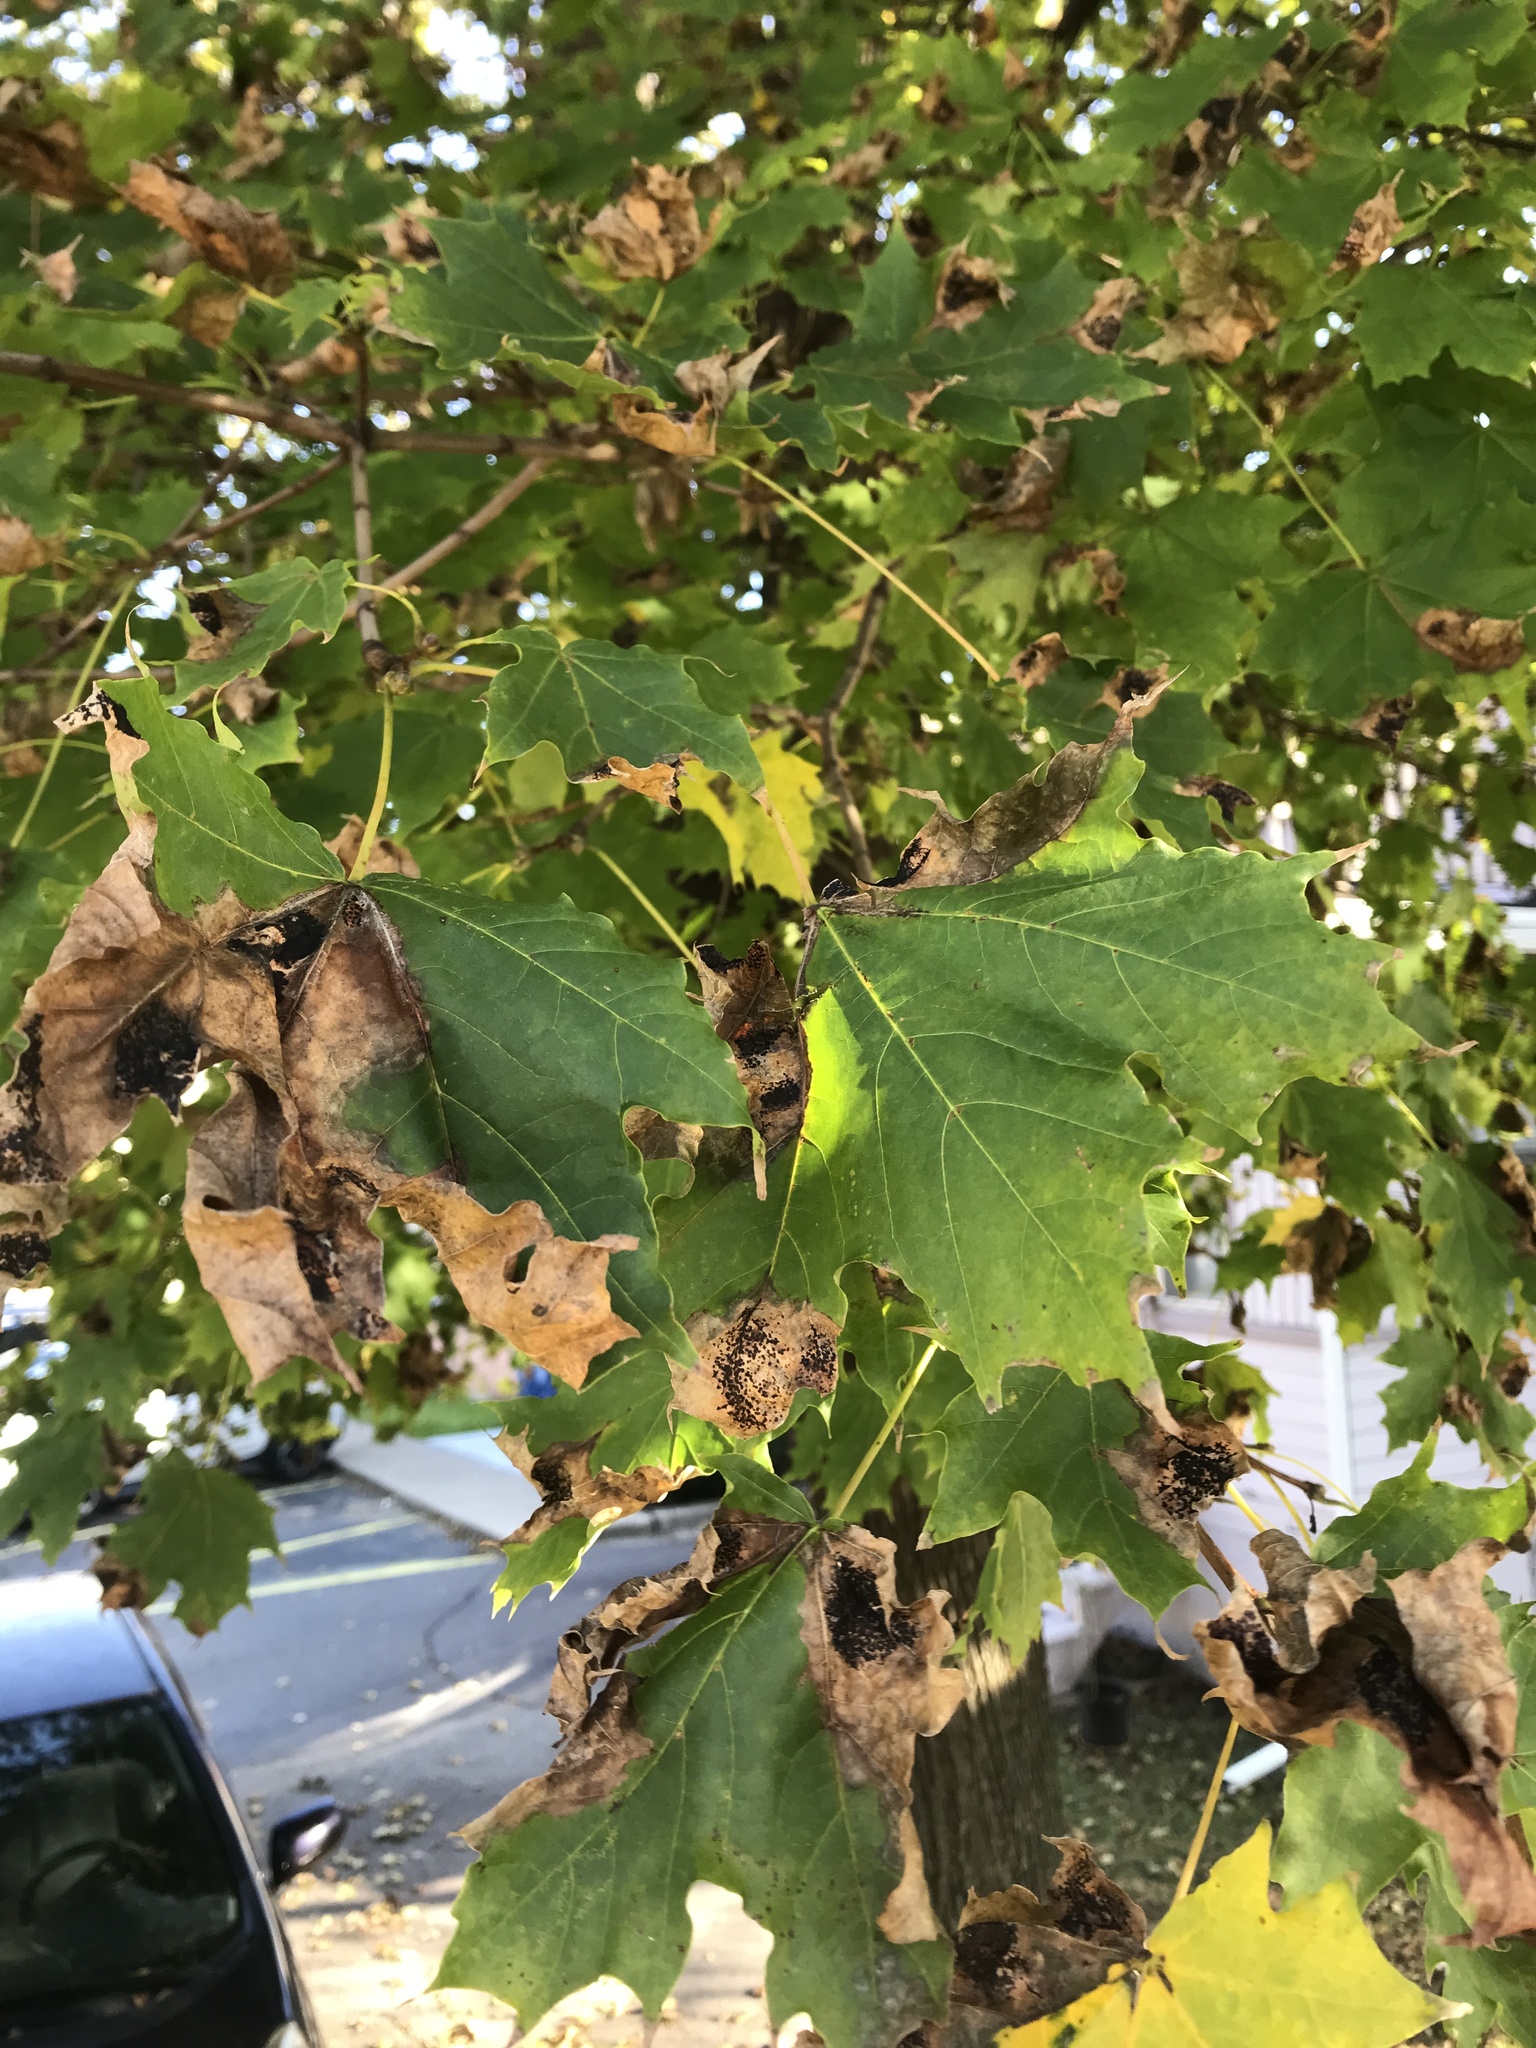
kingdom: Plantae
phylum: Tracheophyta
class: Magnoliopsida
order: Sapindales
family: Sapindaceae
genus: Acer
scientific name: Acer platanoides
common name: Norway maple
